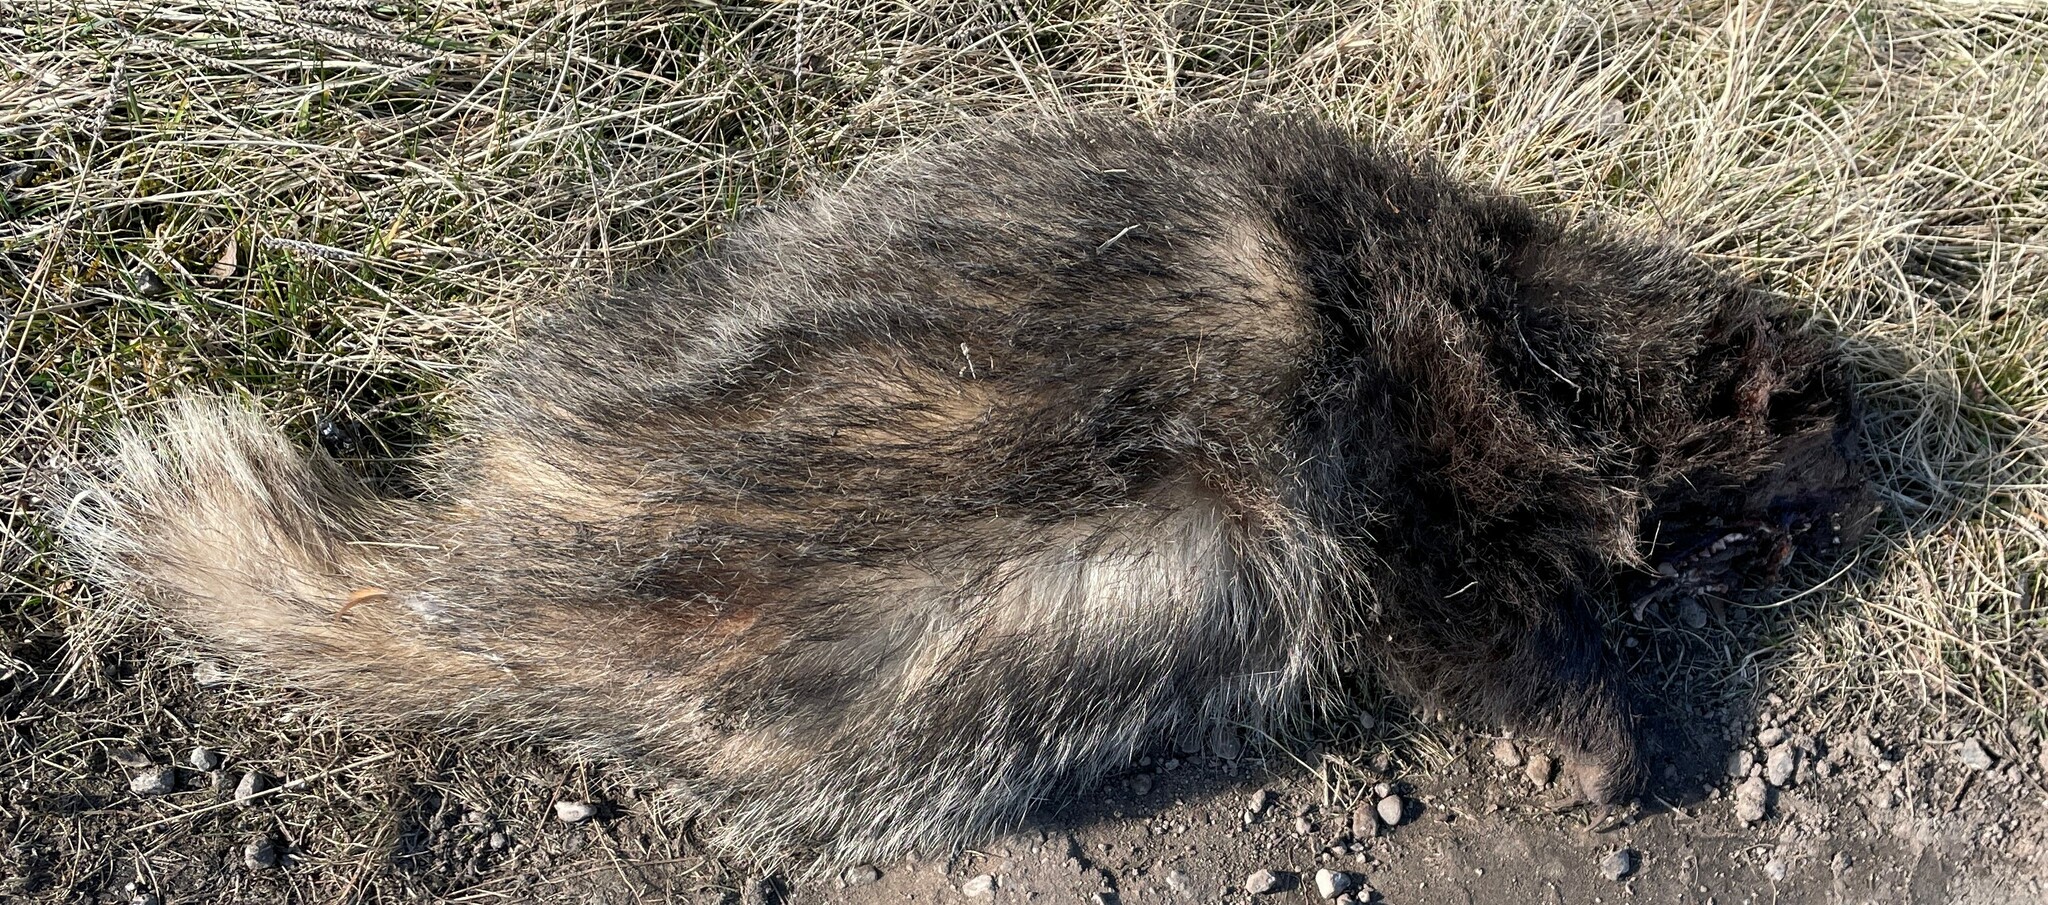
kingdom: Animalia
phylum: Chordata
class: Mammalia
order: Carnivora
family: Mustelidae
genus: Meles
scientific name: Meles meles
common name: Eurasian badger
